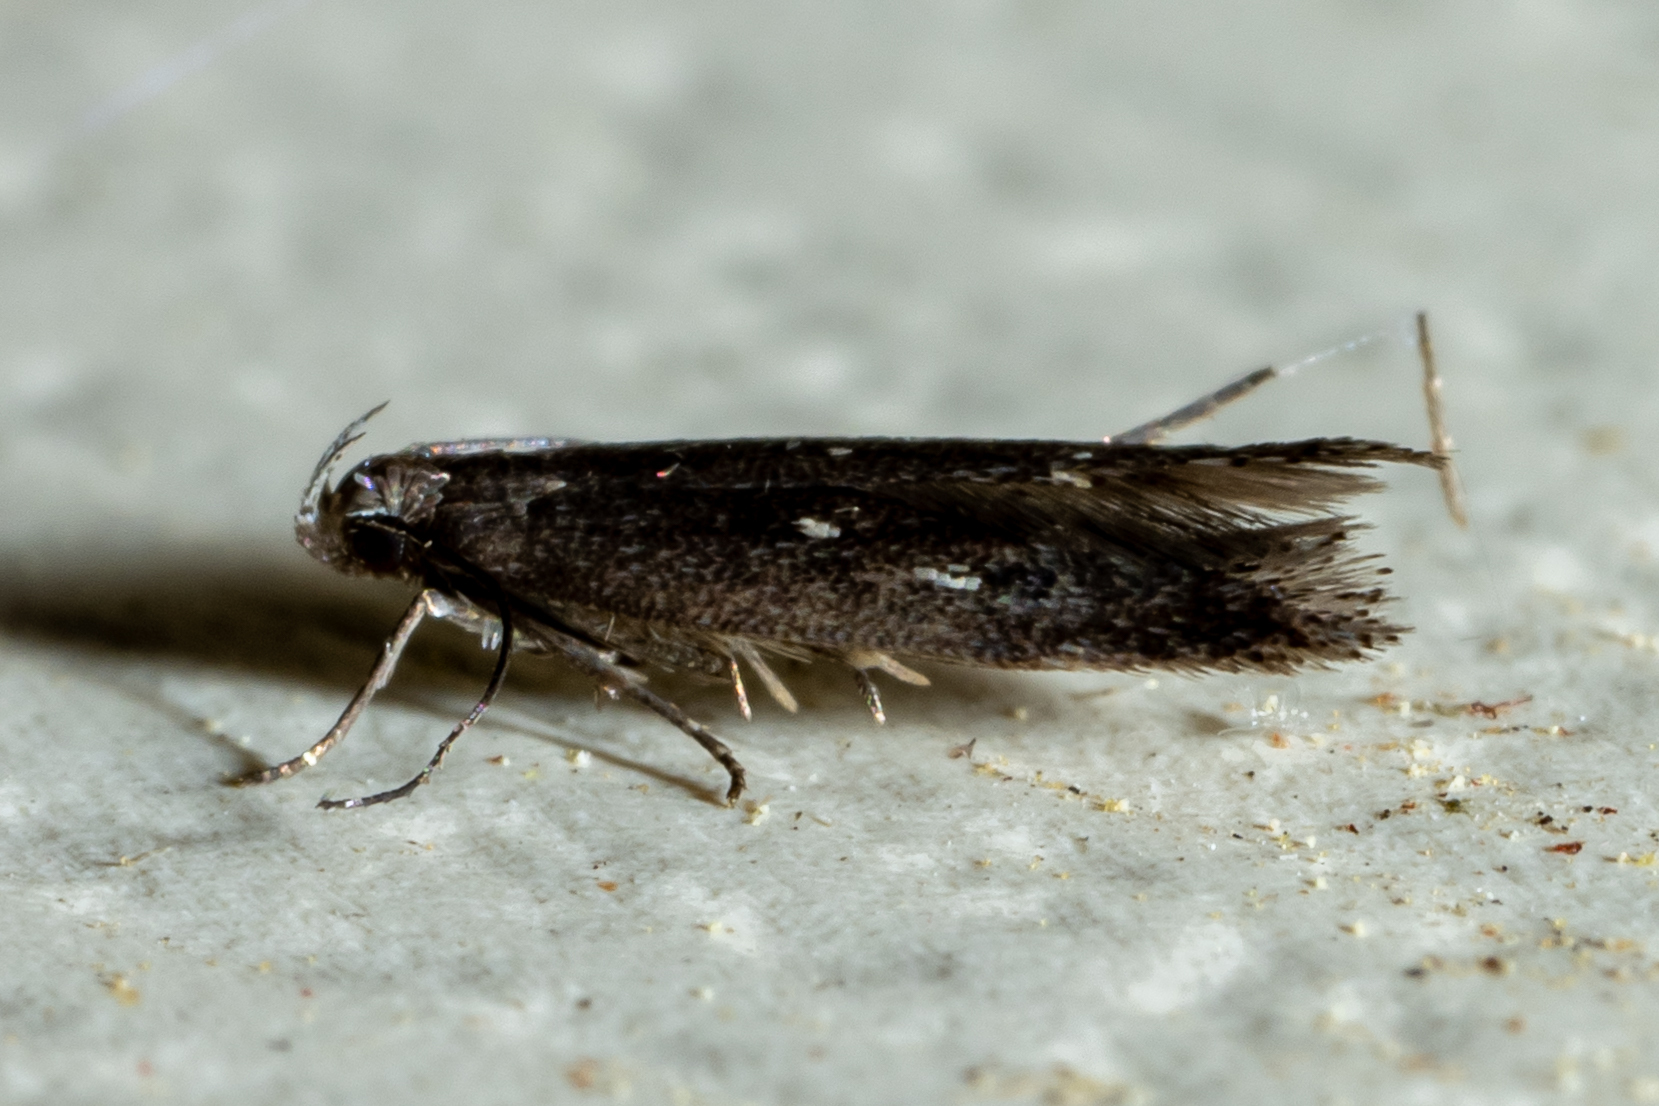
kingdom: Animalia
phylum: Arthropoda
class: Insecta
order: Lepidoptera
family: Gelechiidae
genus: Aproaerema
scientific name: Aproaerema palpilineella
